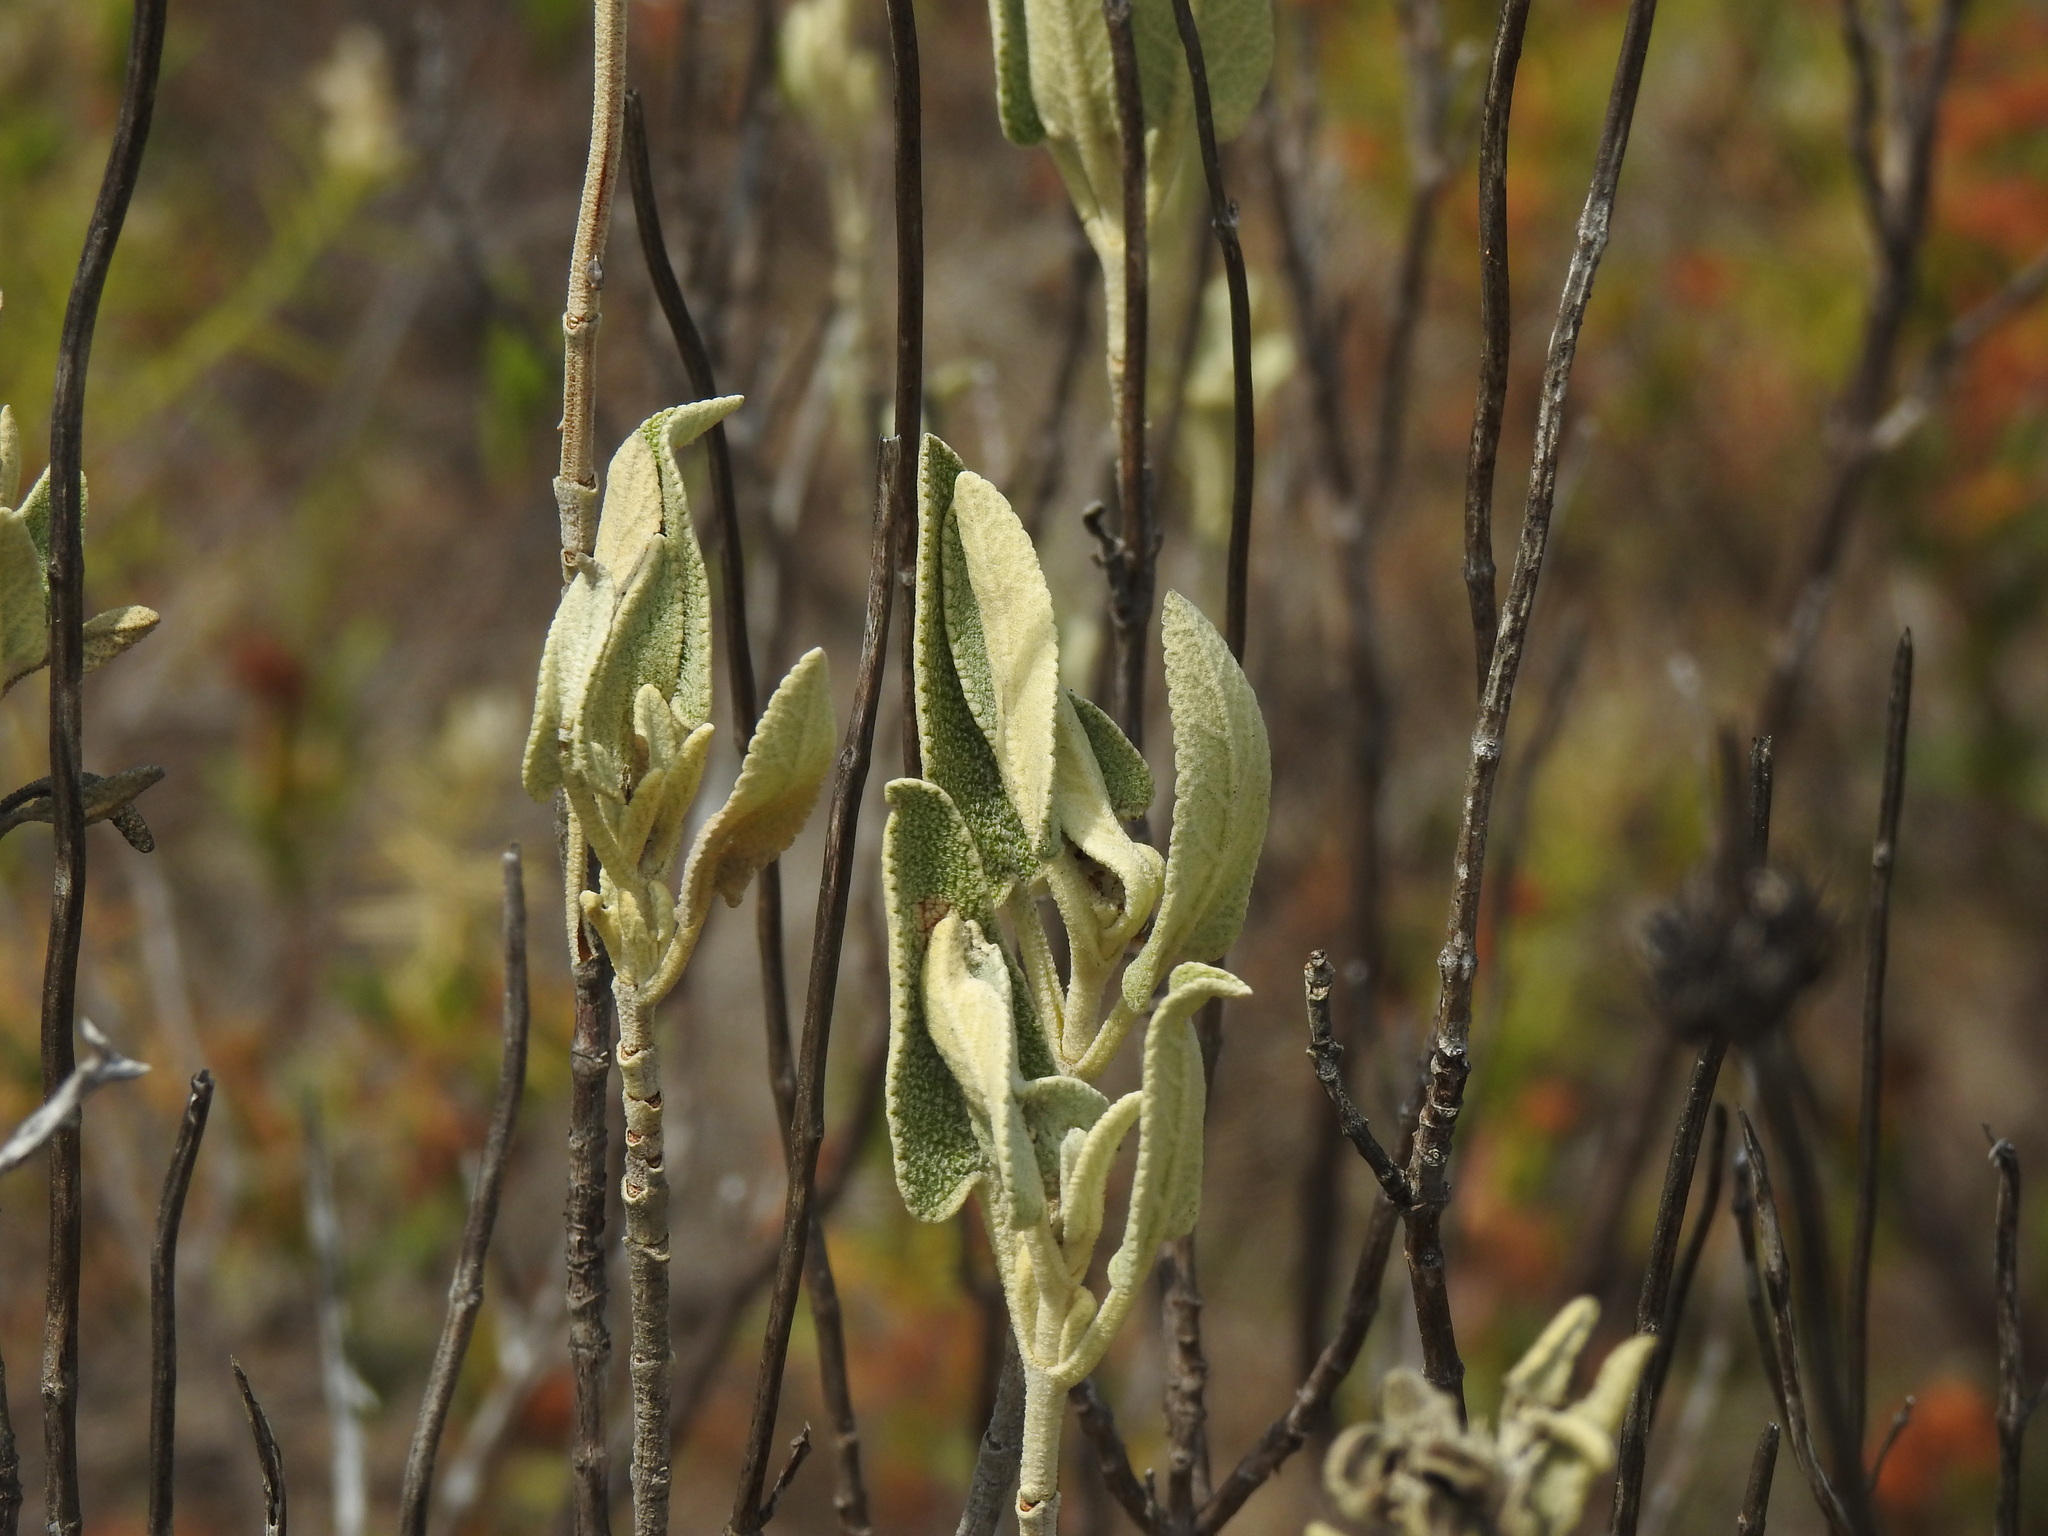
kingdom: Plantae
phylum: Tracheophyta
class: Magnoliopsida
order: Lamiales
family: Lamiaceae
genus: Phlomis
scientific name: Phlomis purpurea
